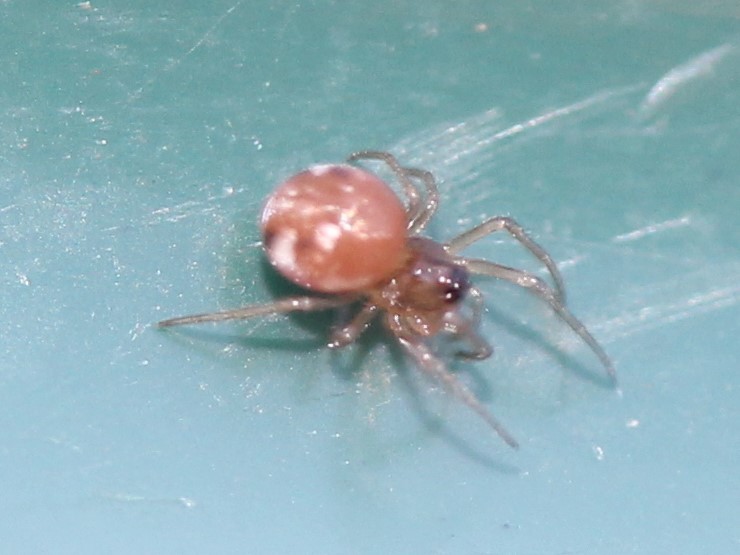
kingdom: Animalia
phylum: Arthropoda
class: Arachnida
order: Araneae
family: Tetragnathidae
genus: Glenognatha
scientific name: Glenognatha foxi
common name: Longjawed orb weavers
